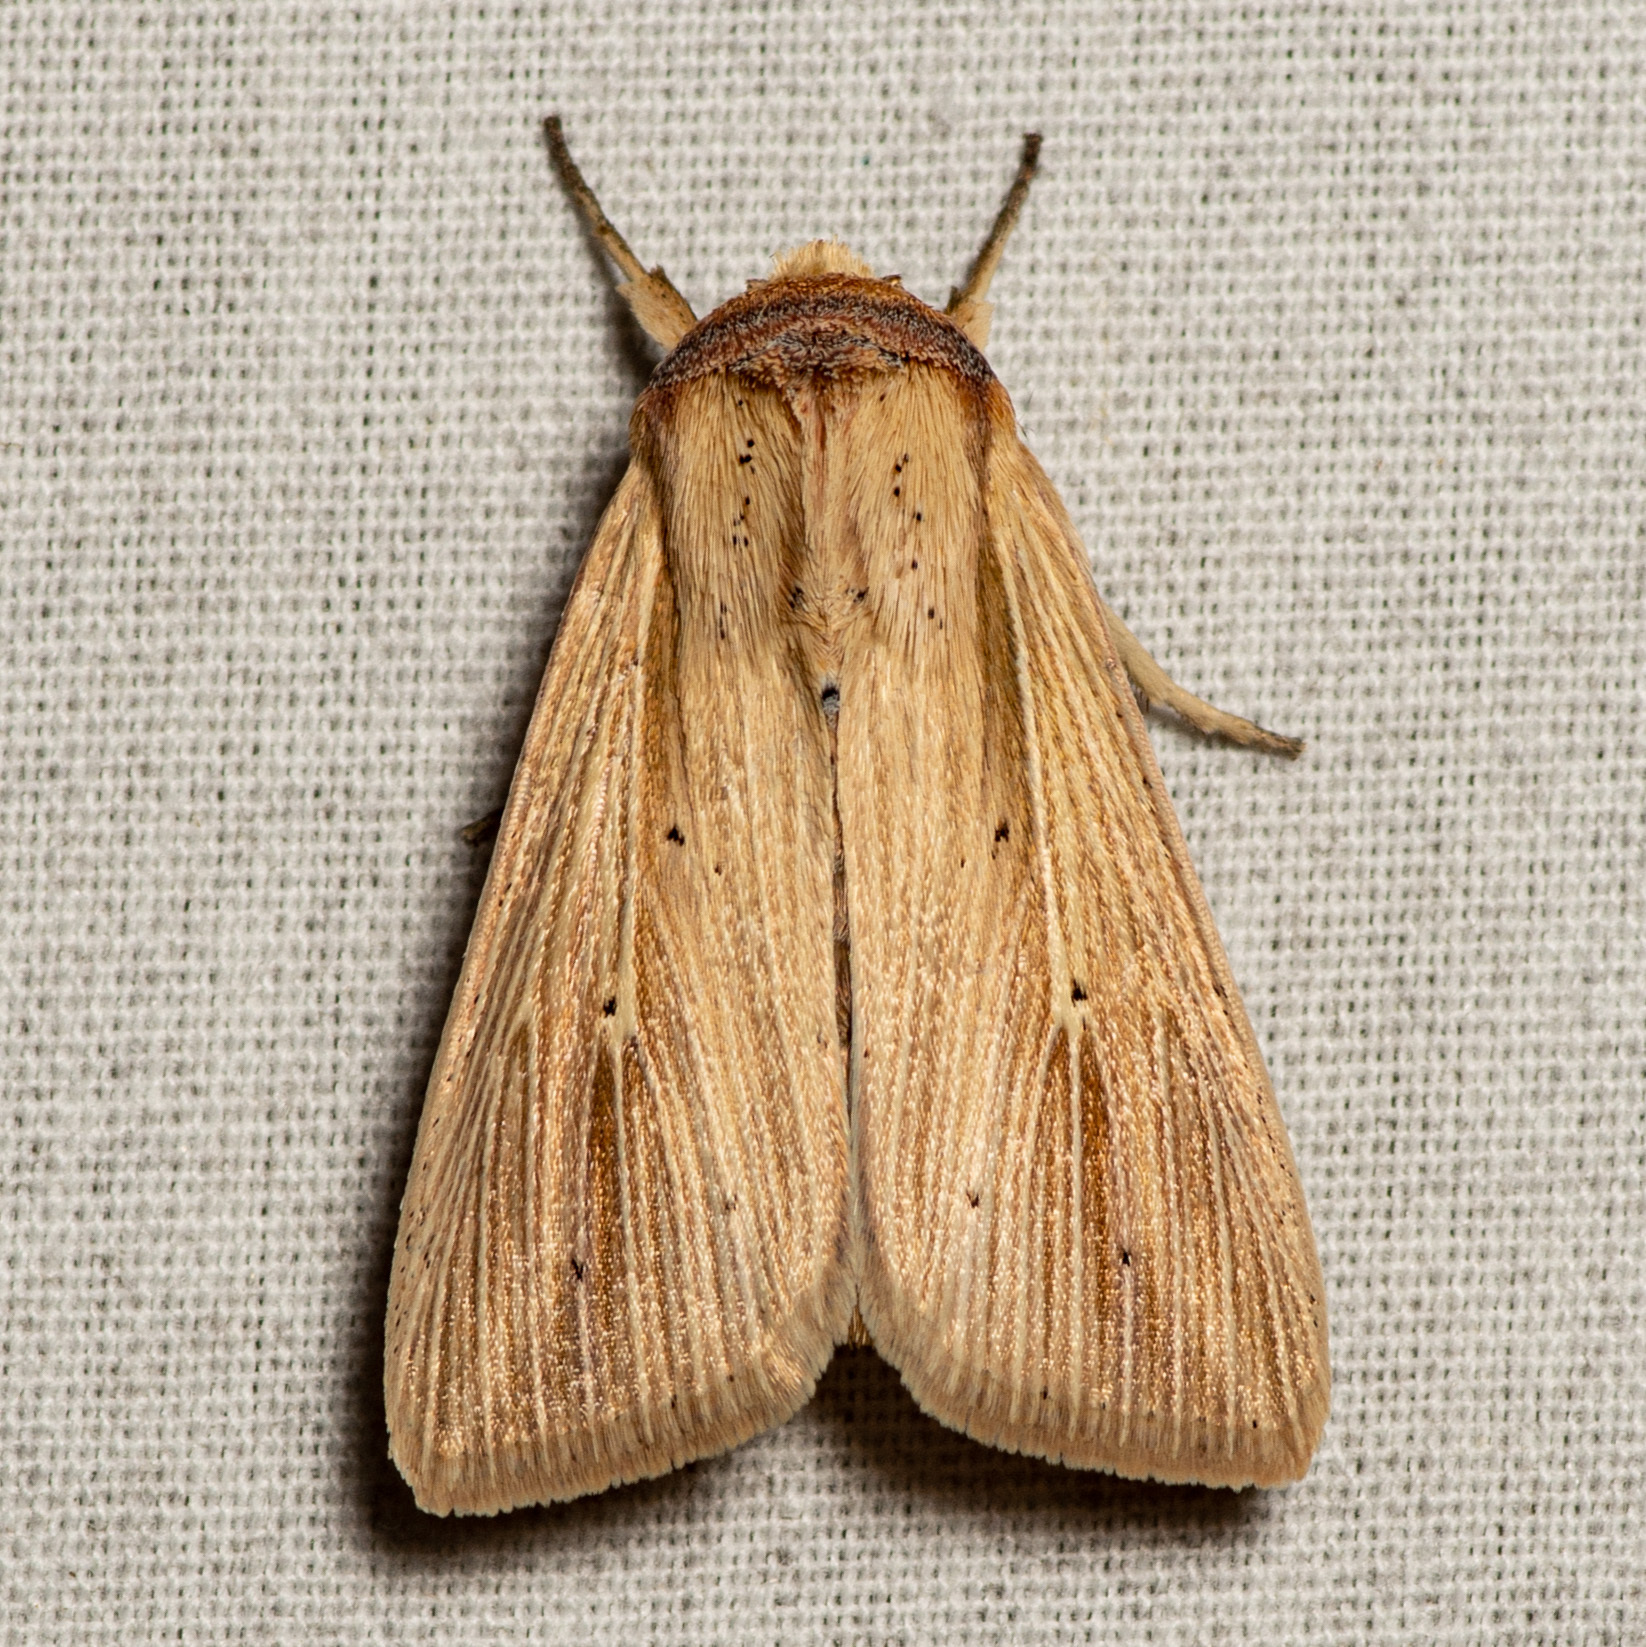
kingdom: Animalia
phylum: Arthropoda
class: Insecta
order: Lepidoptera
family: Noctuidae
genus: Leucania
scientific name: Leucania adjuta
